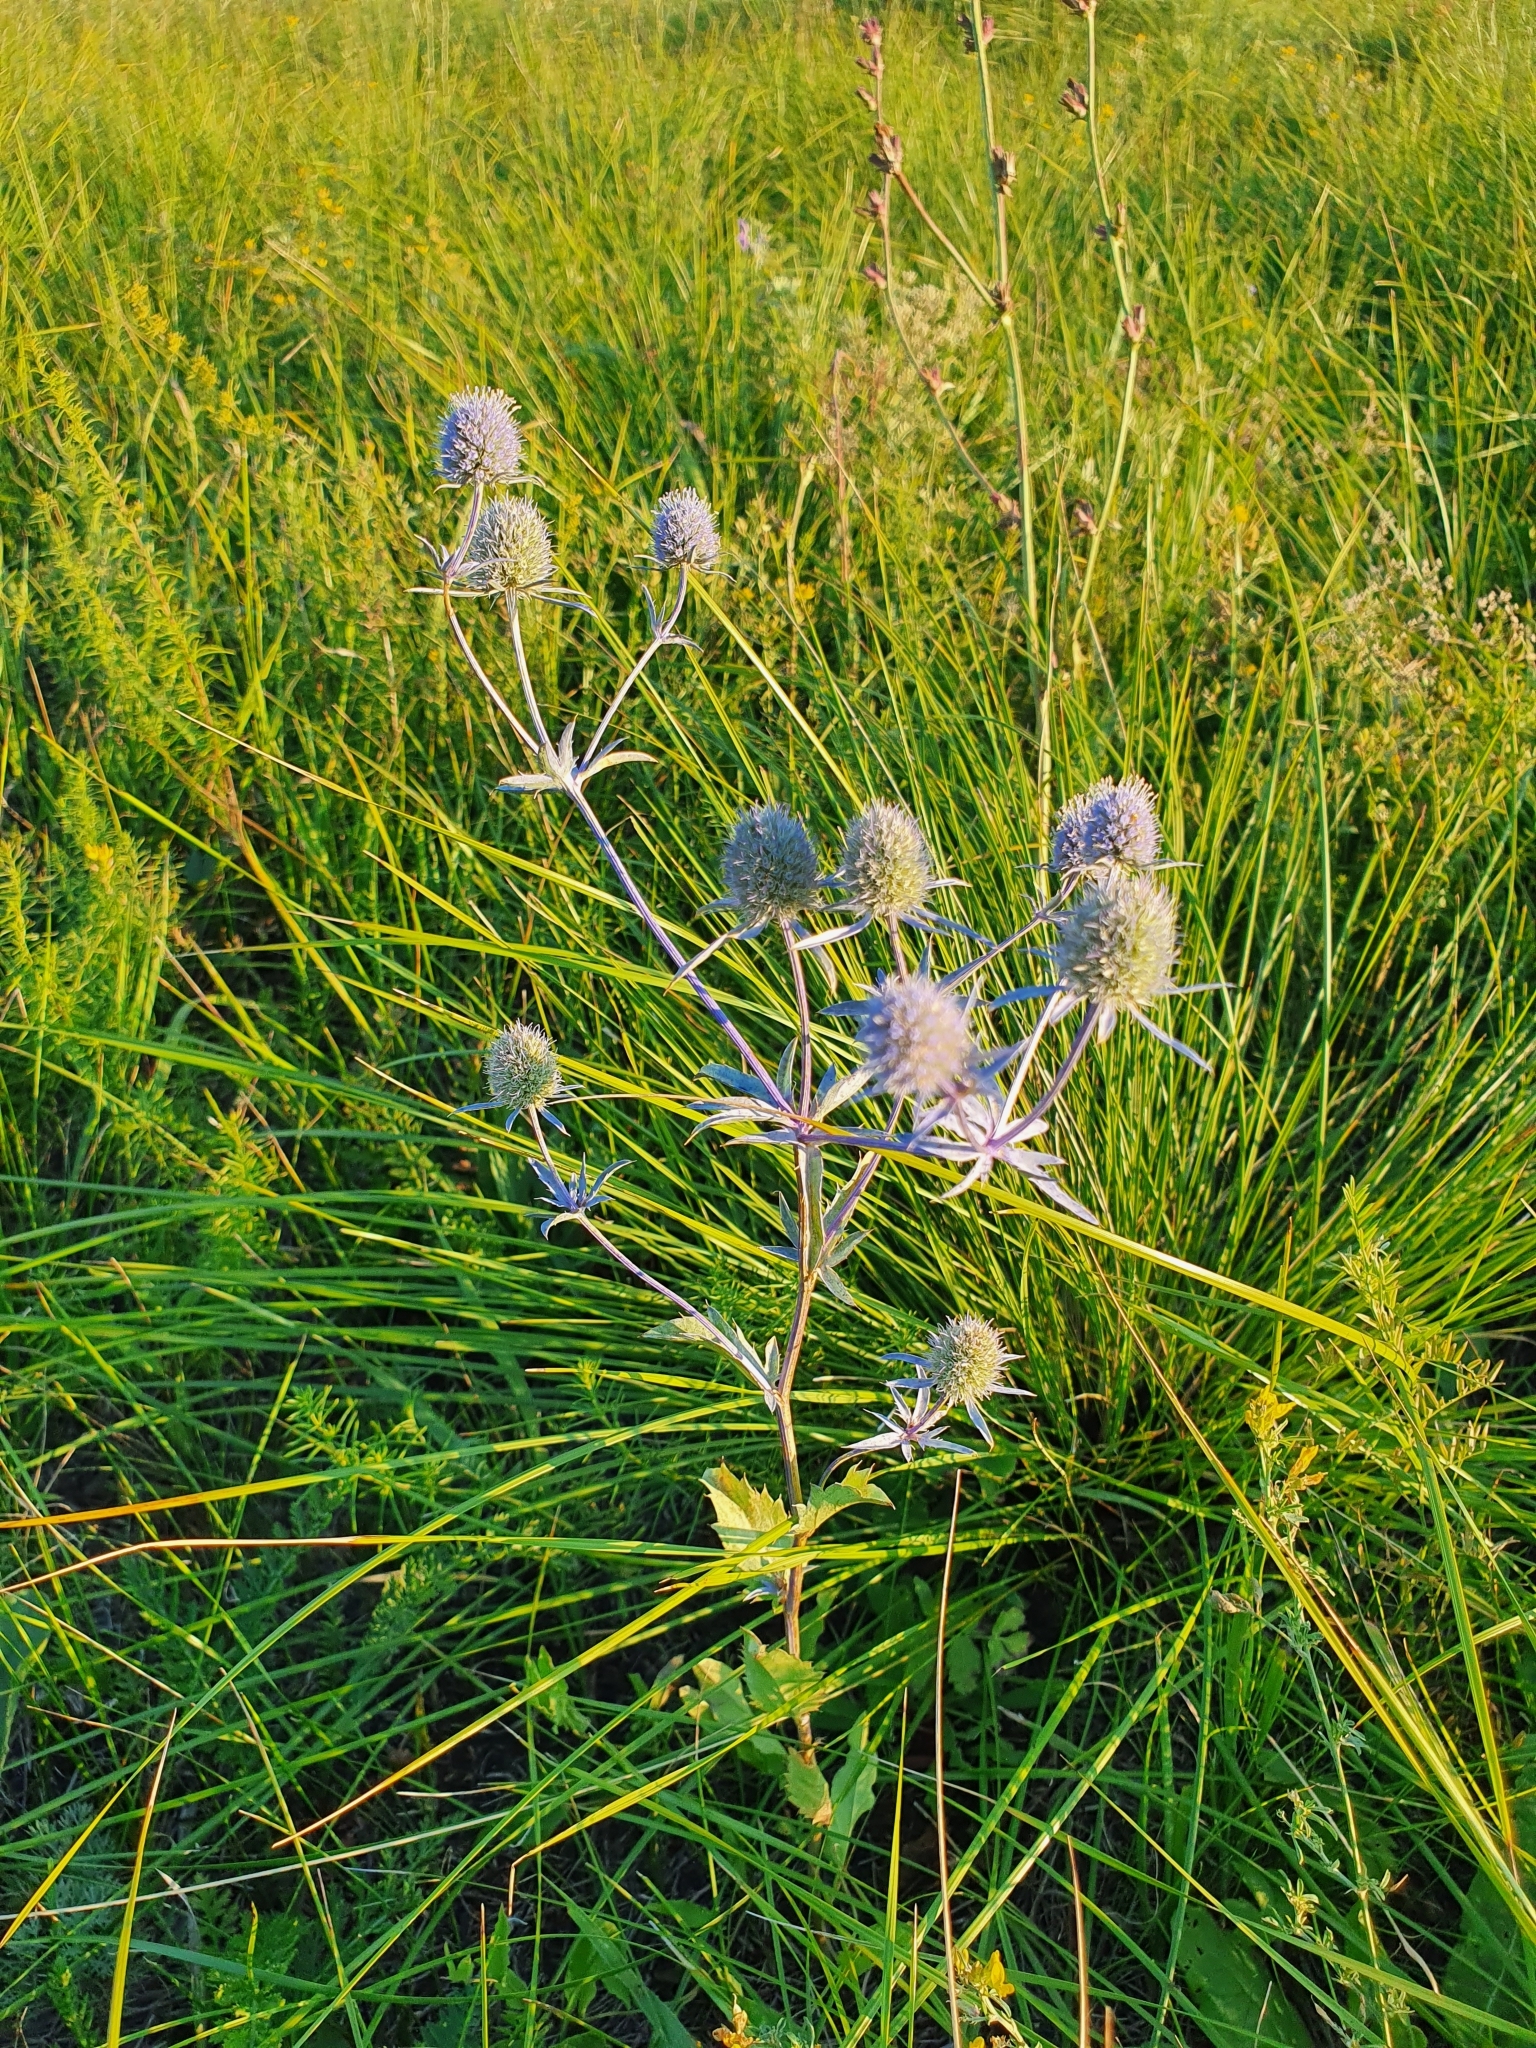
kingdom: Plantae
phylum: Tracheophyta
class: Magnoliopsida
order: Apiales
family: Apiaceae
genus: Eryngium
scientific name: Eryngium planum
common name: Blue eryngo
